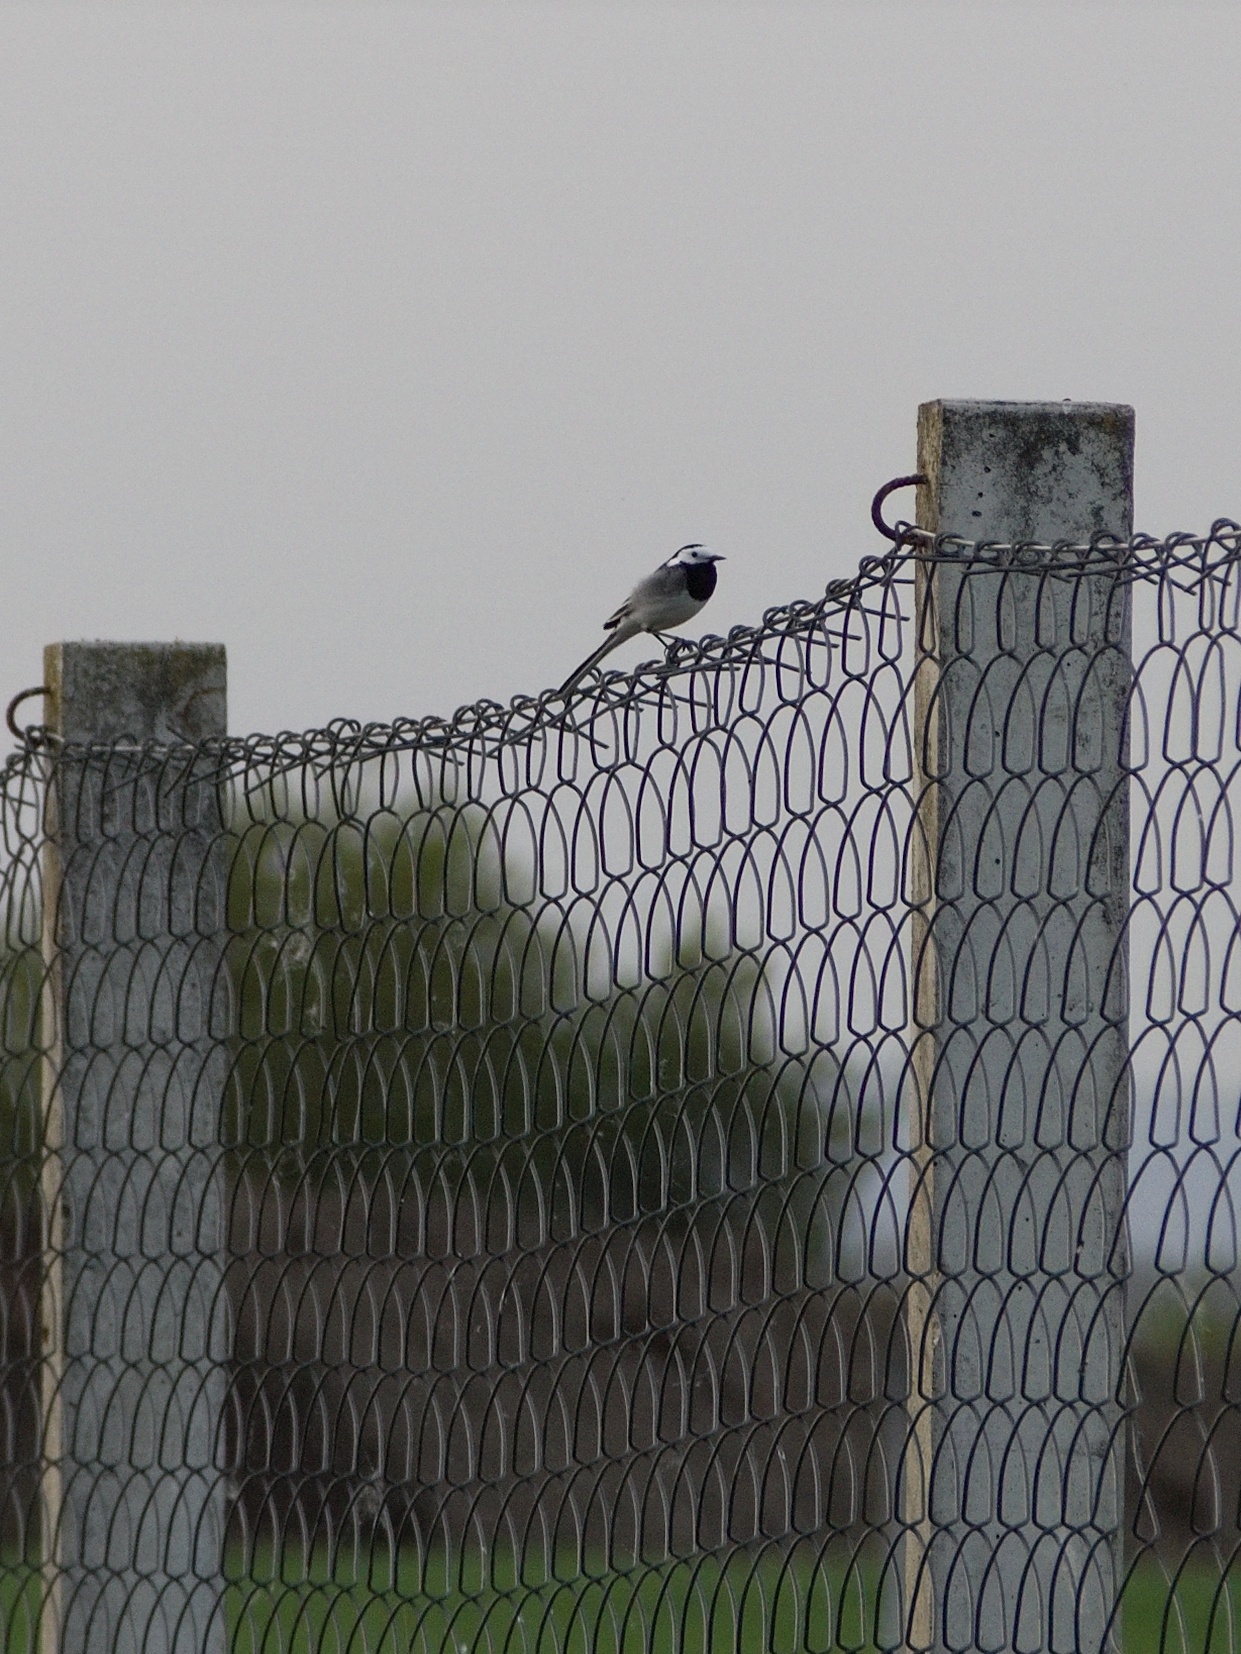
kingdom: Animalia
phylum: Chordata
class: Aves
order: Passeriformes
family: Motacillidae
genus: Motacilla
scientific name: Motacilla alba
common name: White wagtail
